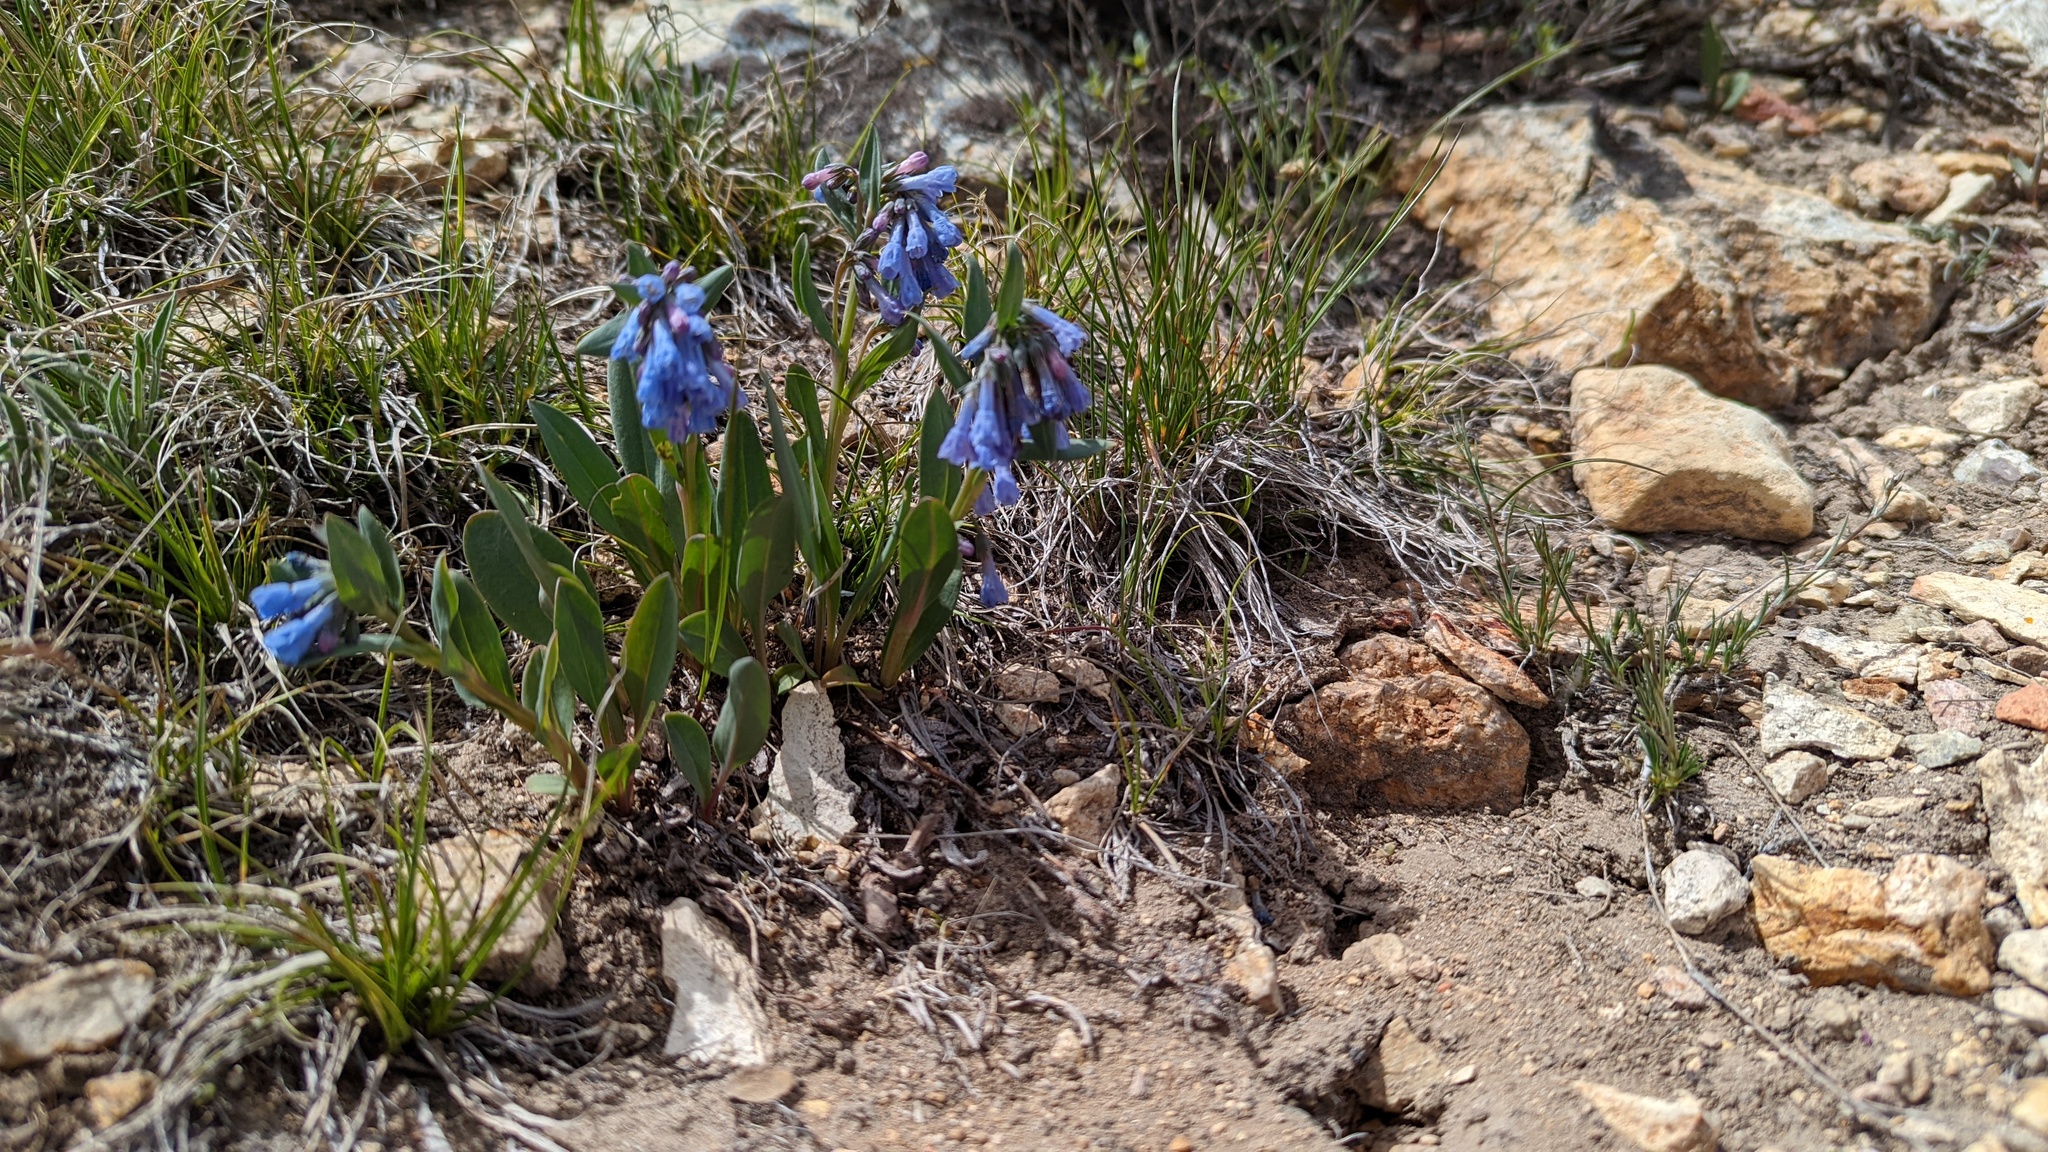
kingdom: Plantae
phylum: Tracheophyta
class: Magnoliopsida
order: Boraginales
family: Boraginaceae
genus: Mertensia
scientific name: Mertensia oblongifolia
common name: Sagebrush bluebells
